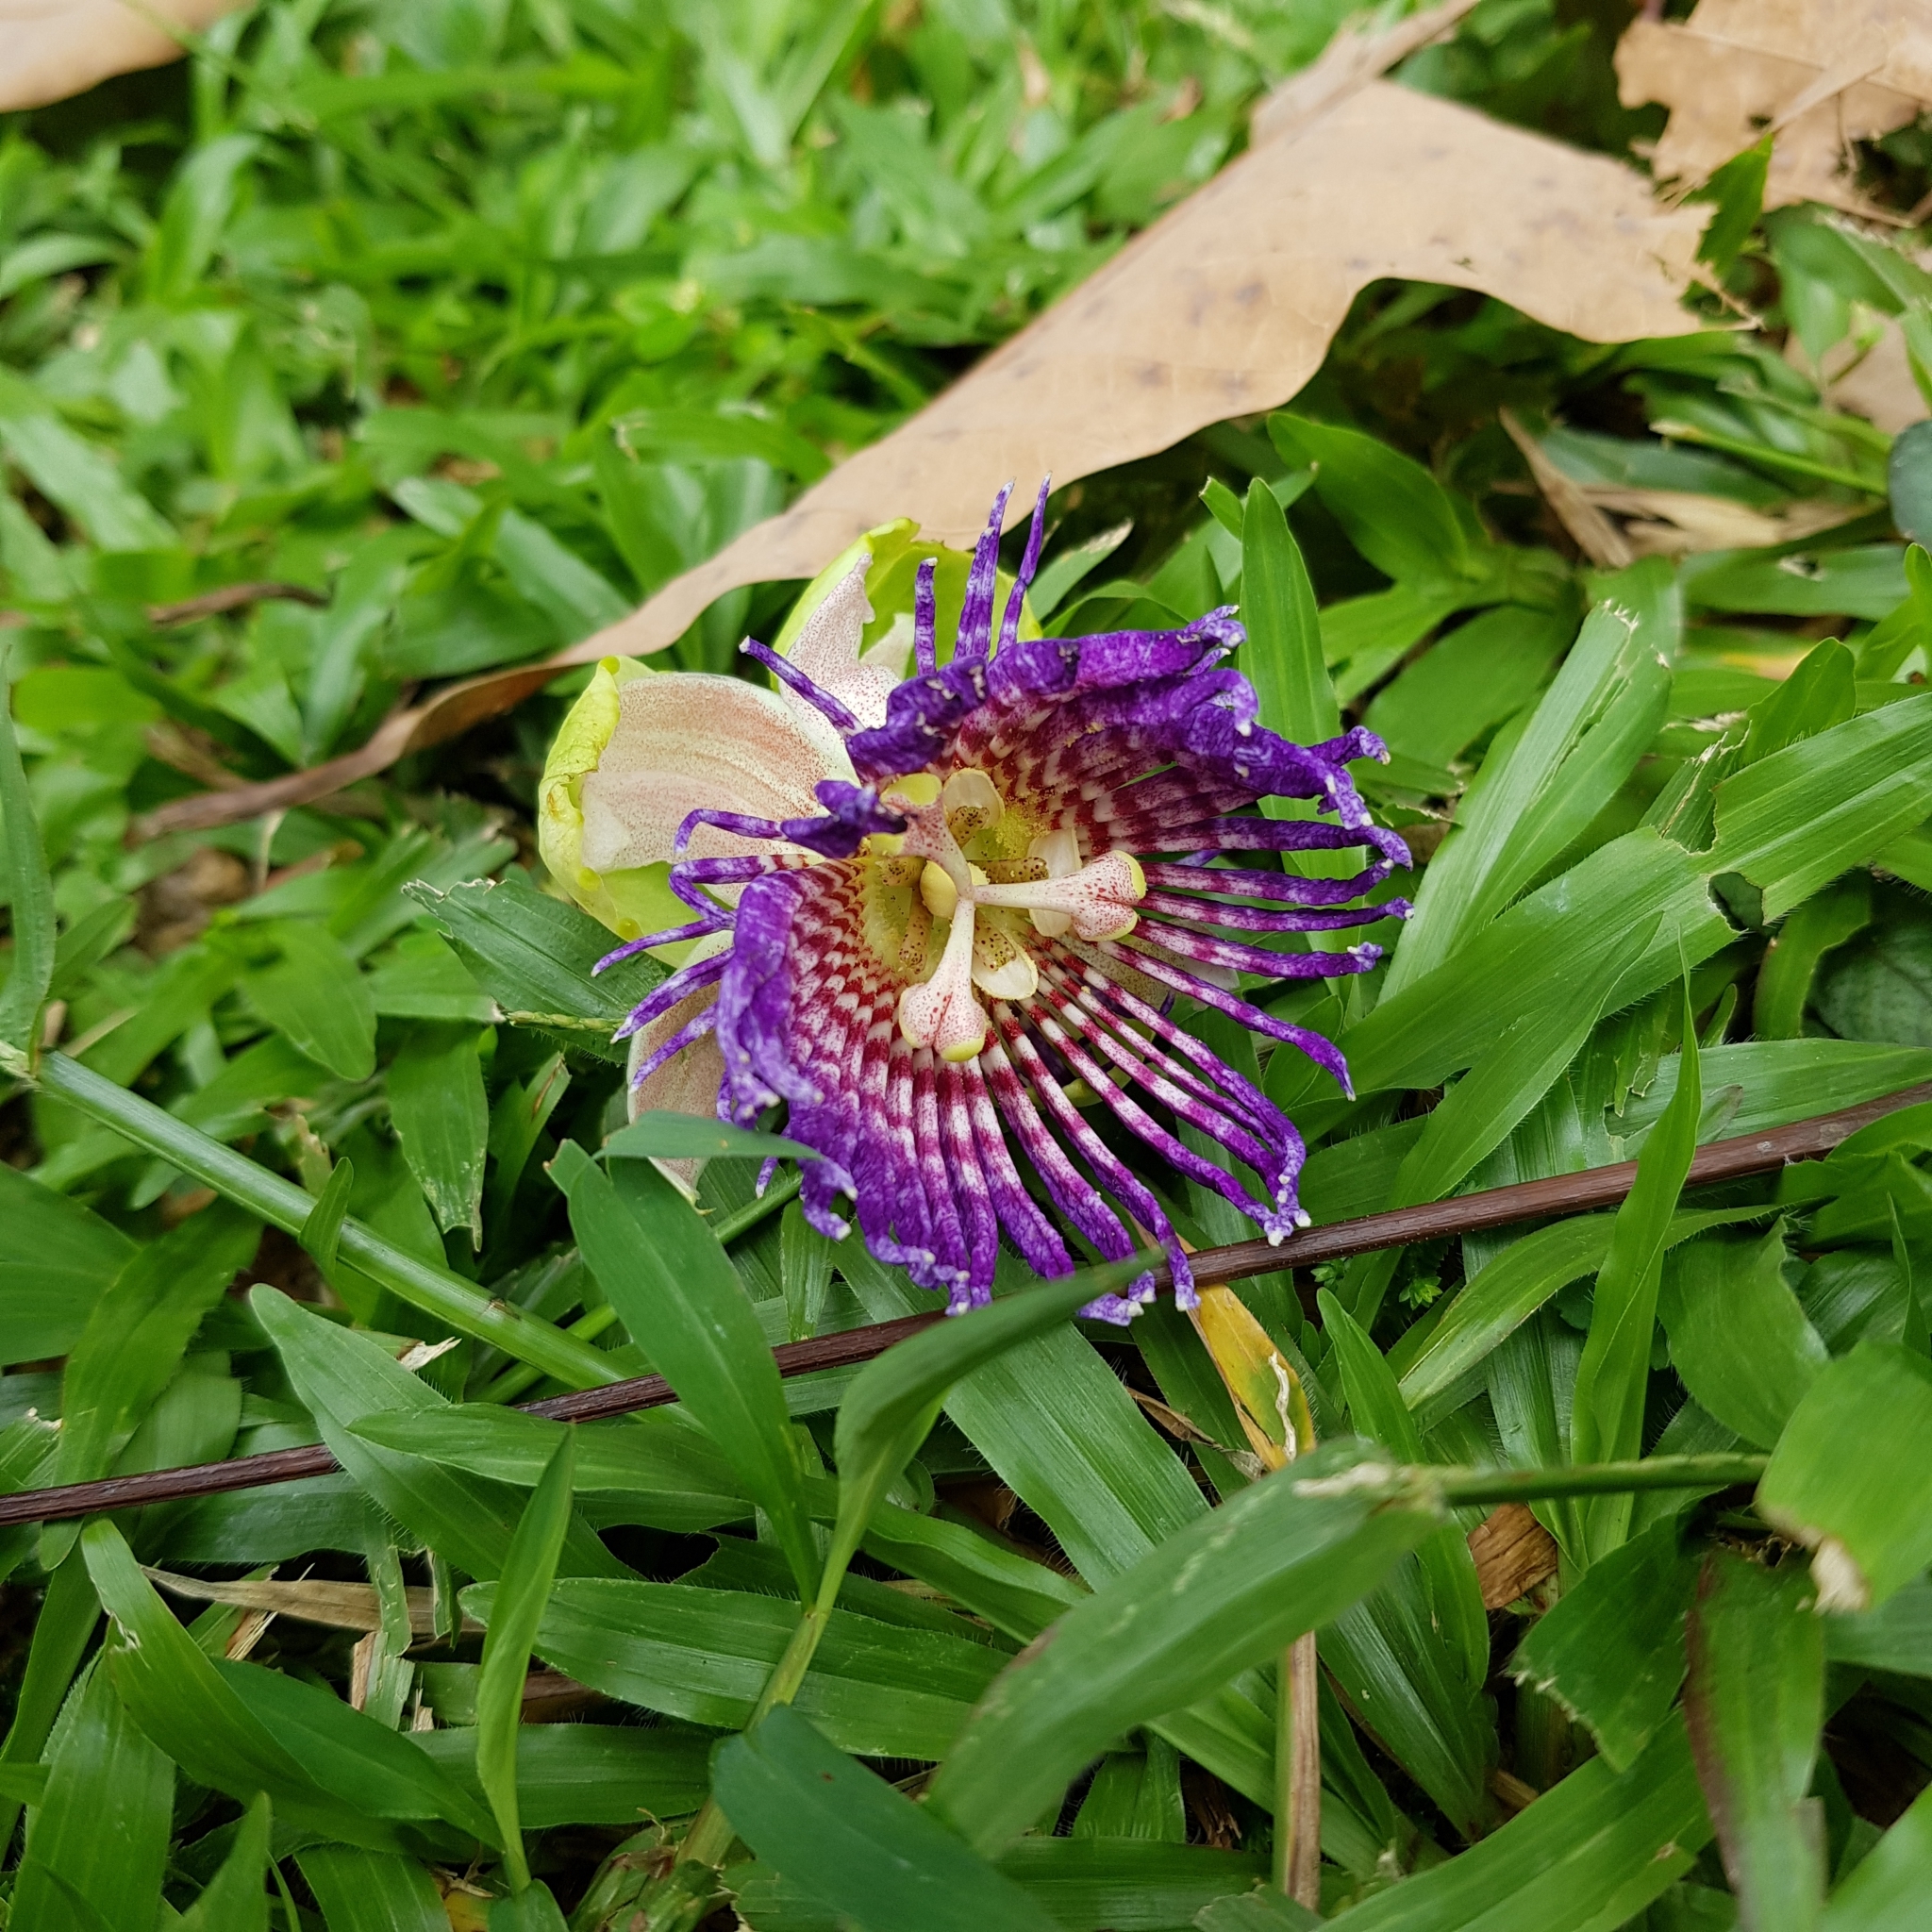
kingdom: Plantae
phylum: Tracheophyta
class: Magnoliopsida
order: Malpighiales
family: Passifloraceae
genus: Passiflora
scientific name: Passiflora laurifolia
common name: Bell apple
